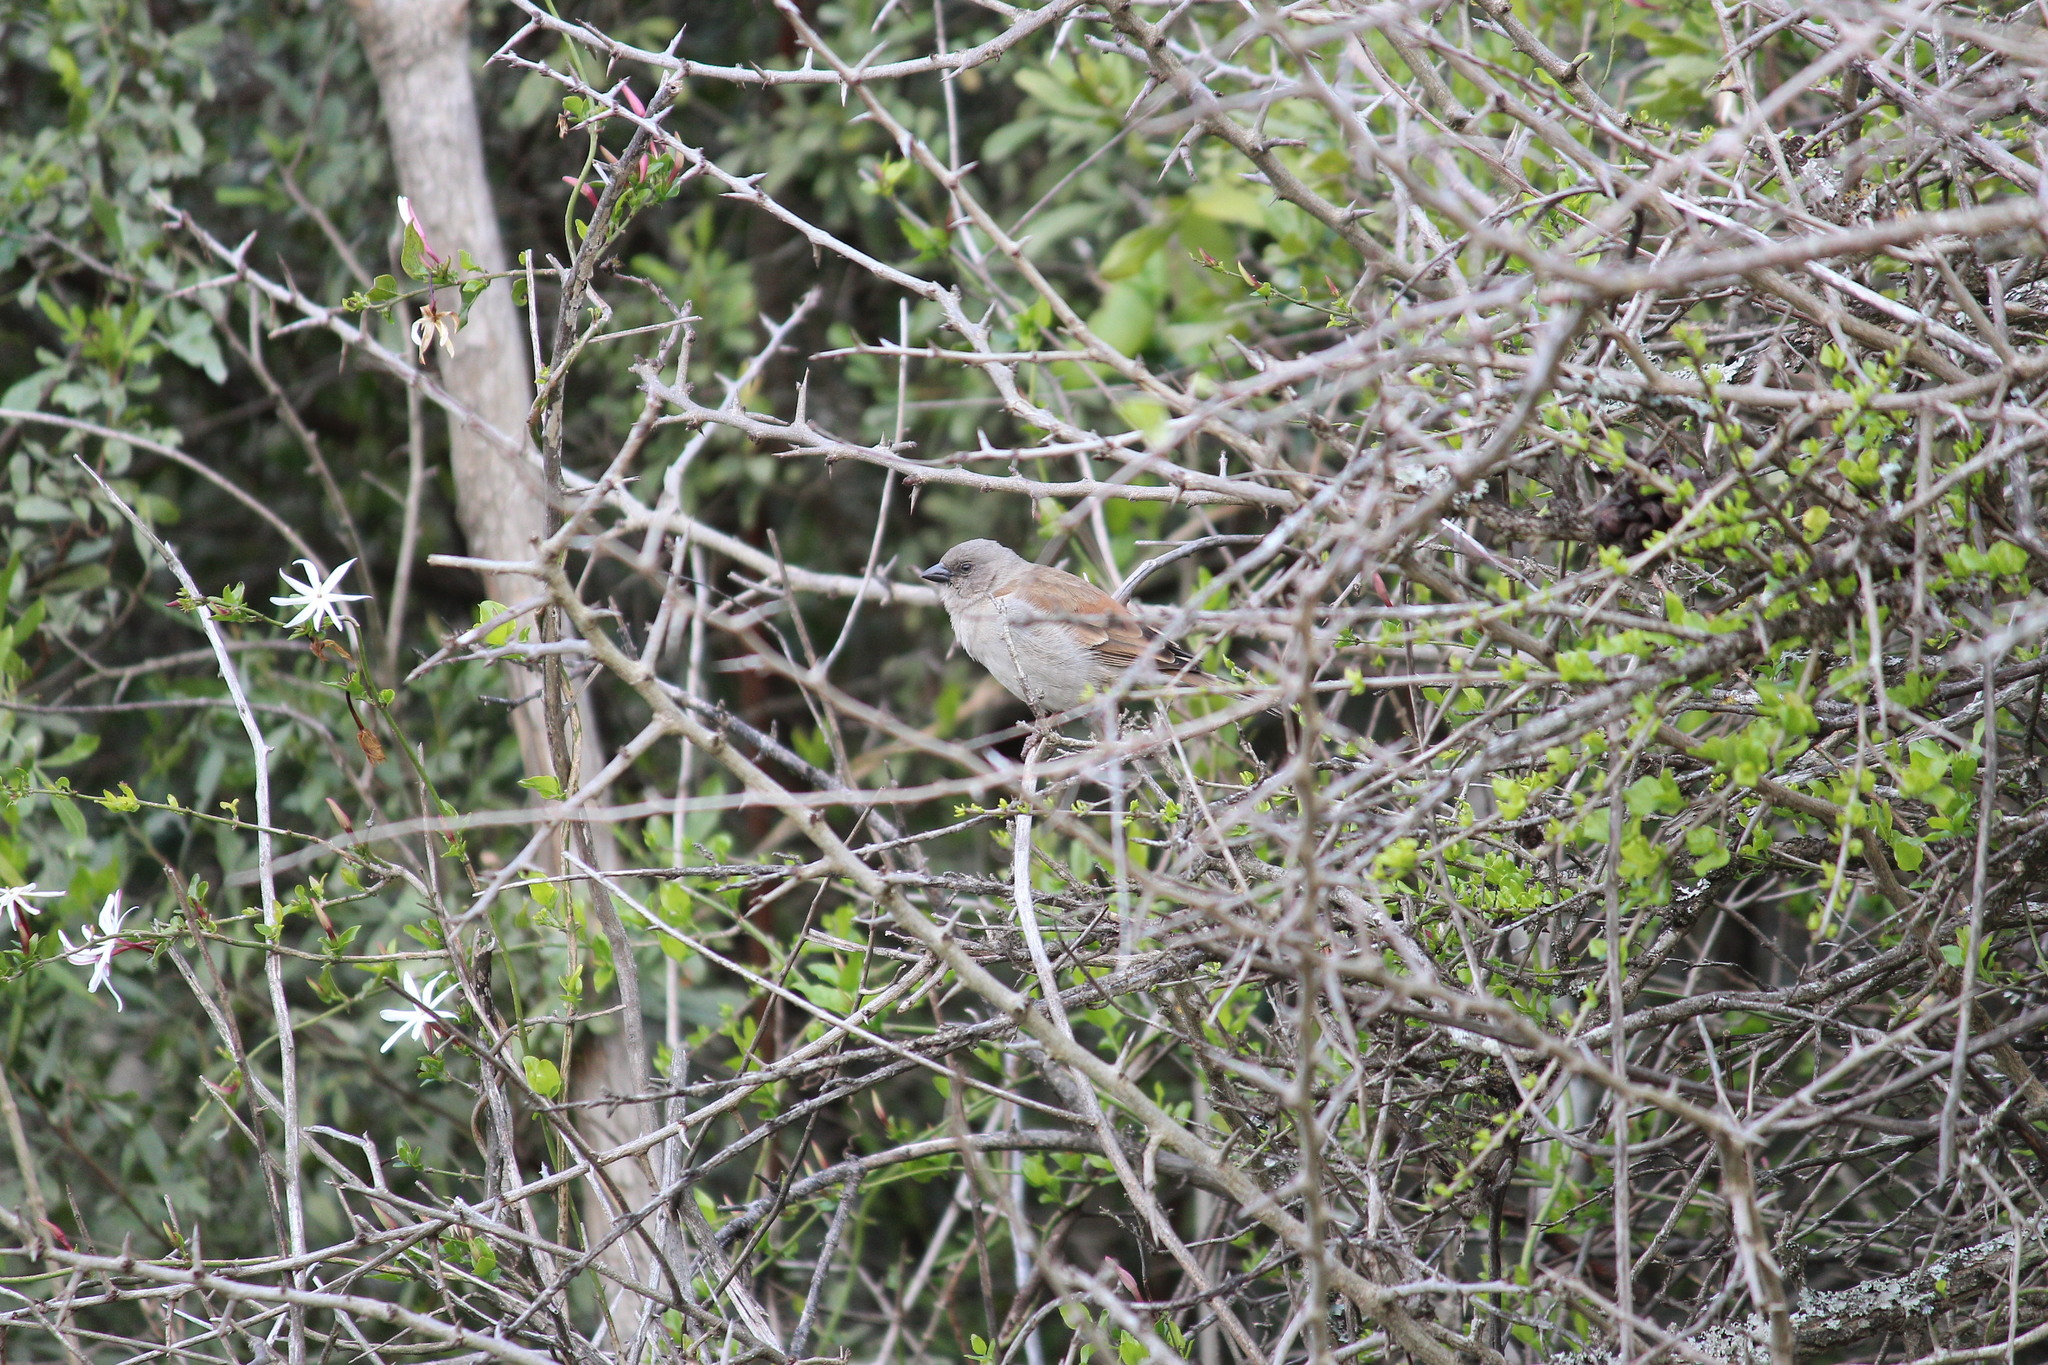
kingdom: Animalia
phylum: Chordata
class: Aves
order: Passeriformes
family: Passeridae
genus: Passer
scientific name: Passer diffusus
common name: Southern grey-headed sparrow
